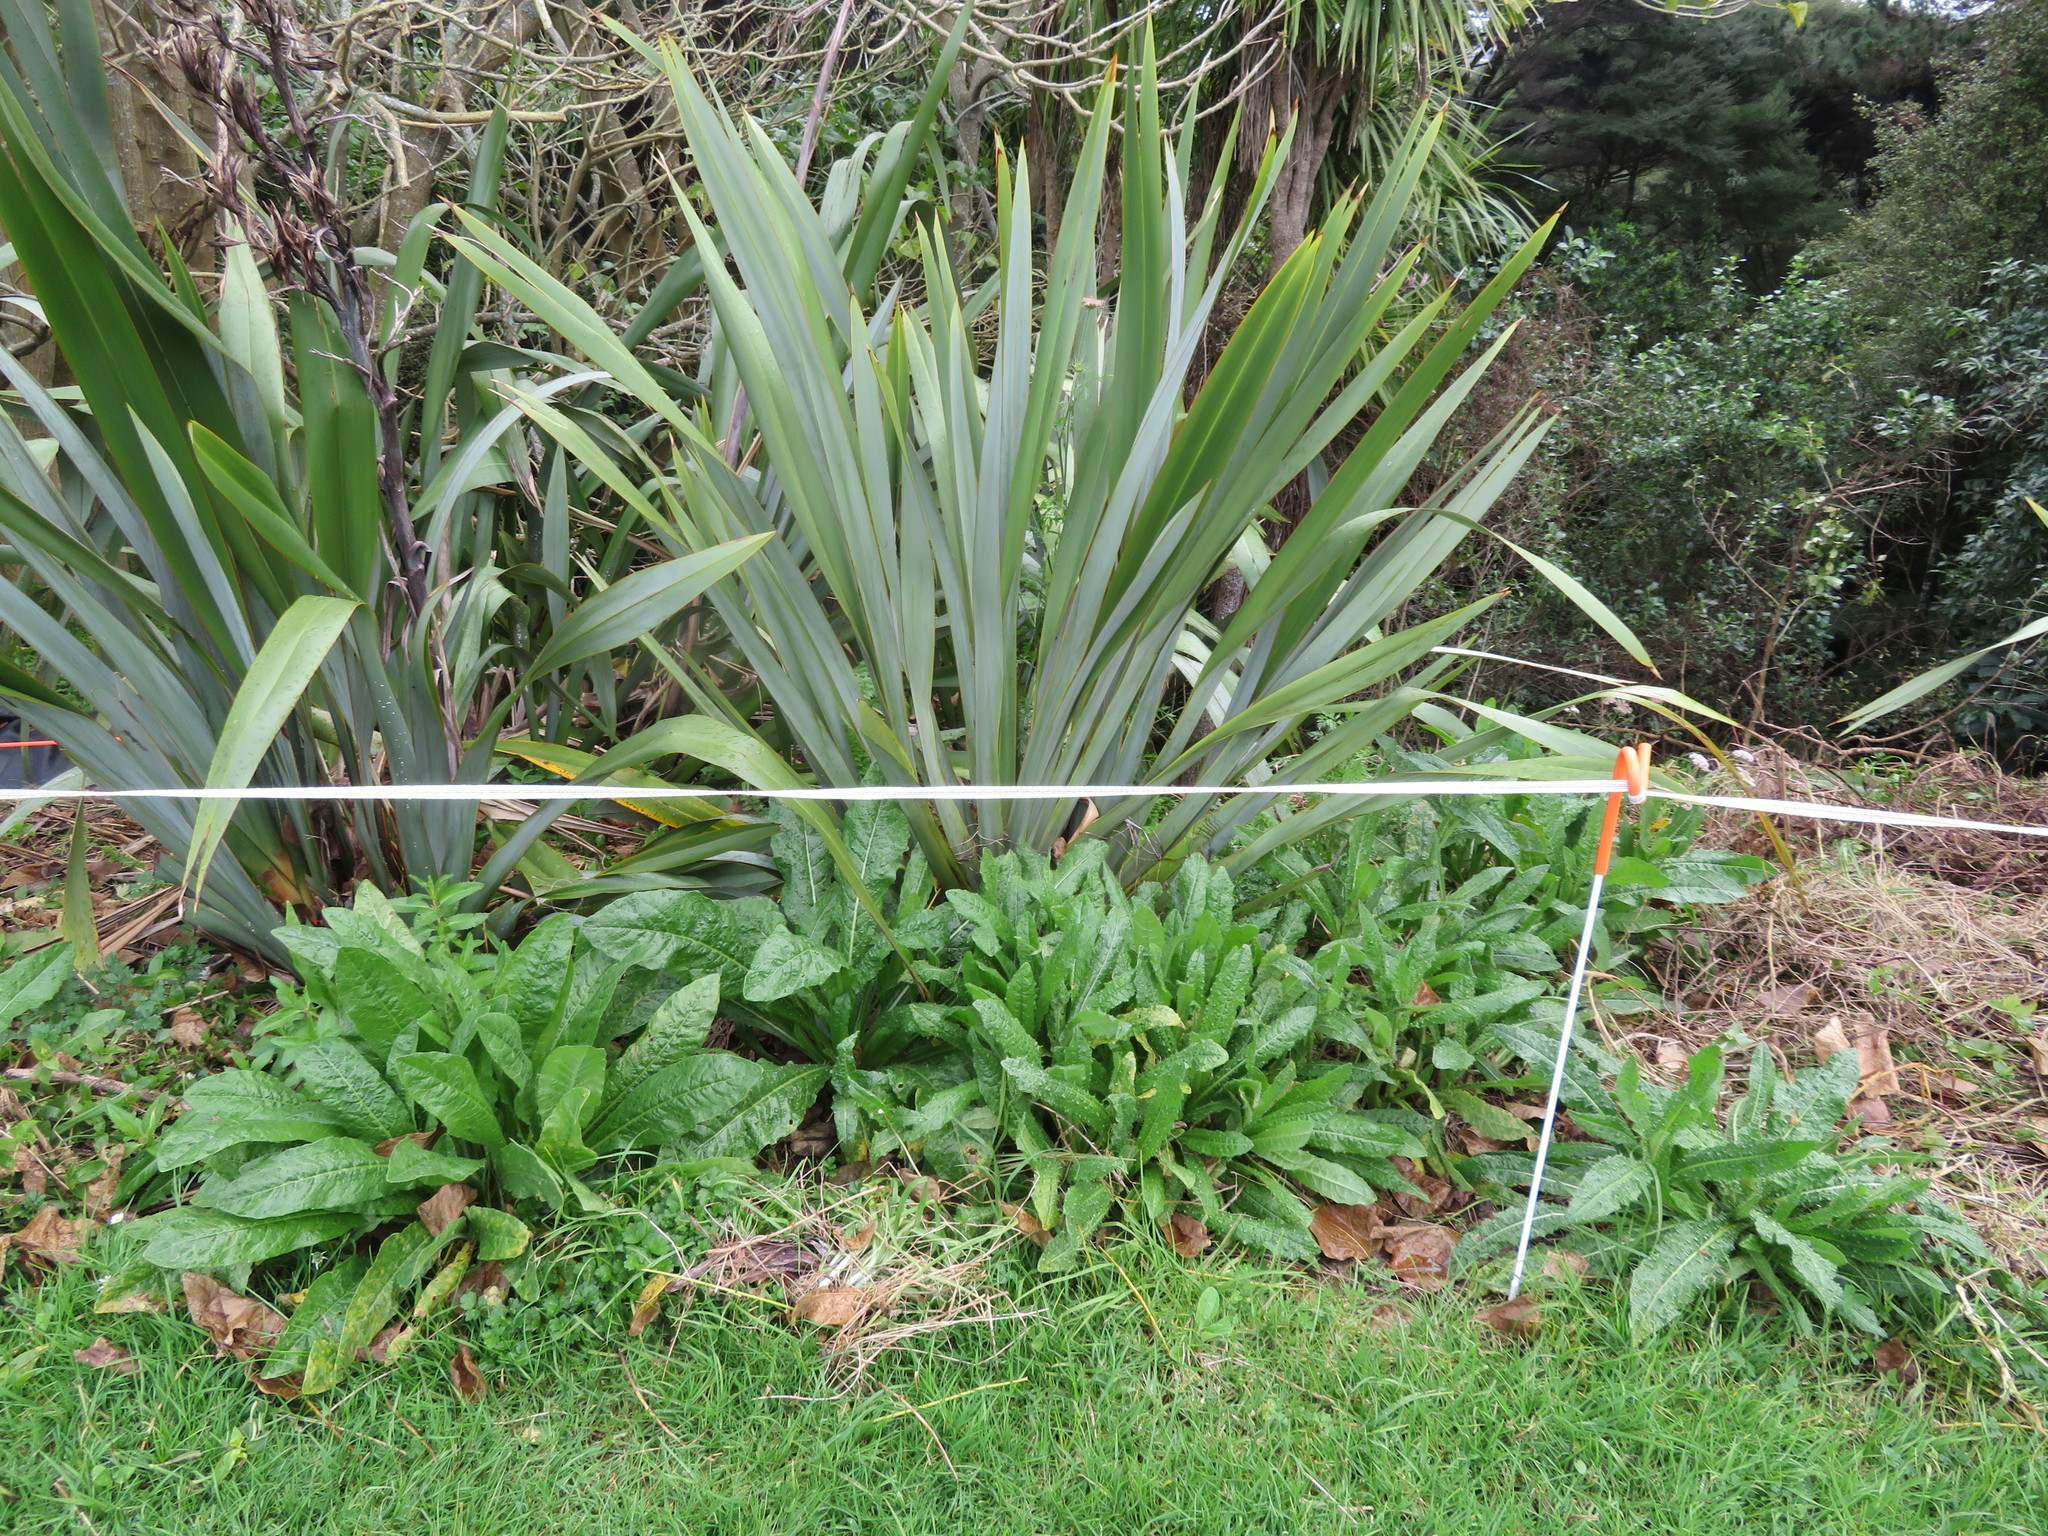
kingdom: Plantae
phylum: Tracheophyta
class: Magnoliopsida
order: Asterales
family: Asteraceae
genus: Helminthotheca
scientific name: Helminthotheca echioides
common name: Ox-tongue
